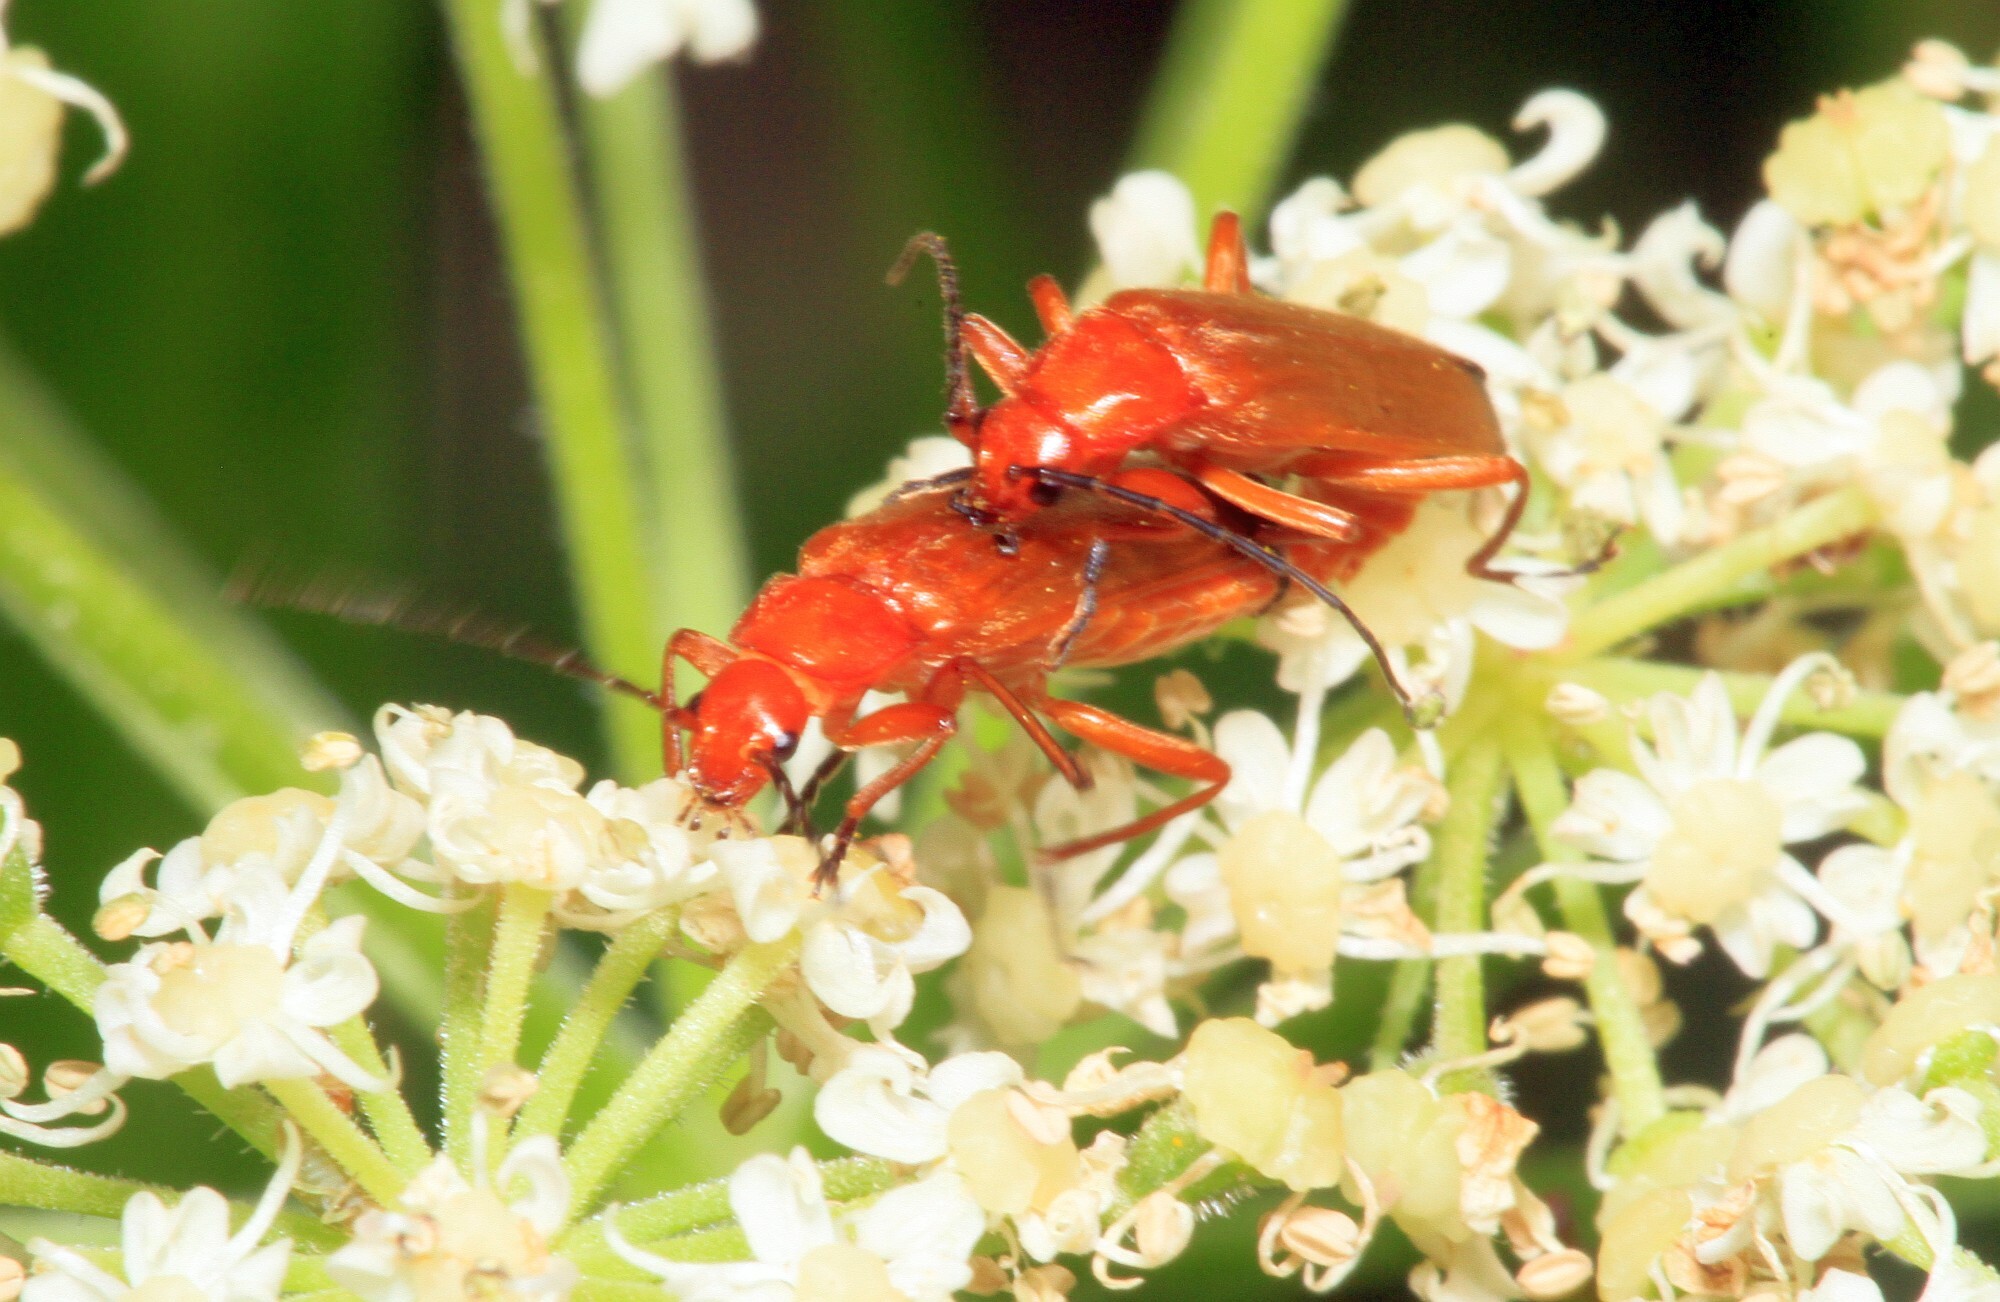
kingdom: Animalia
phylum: Arthropoda
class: Insecta
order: Coleoptera
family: Cantharidae
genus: Rhagonycha
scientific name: Rhagonycha fulva
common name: Common red soldier beetle
